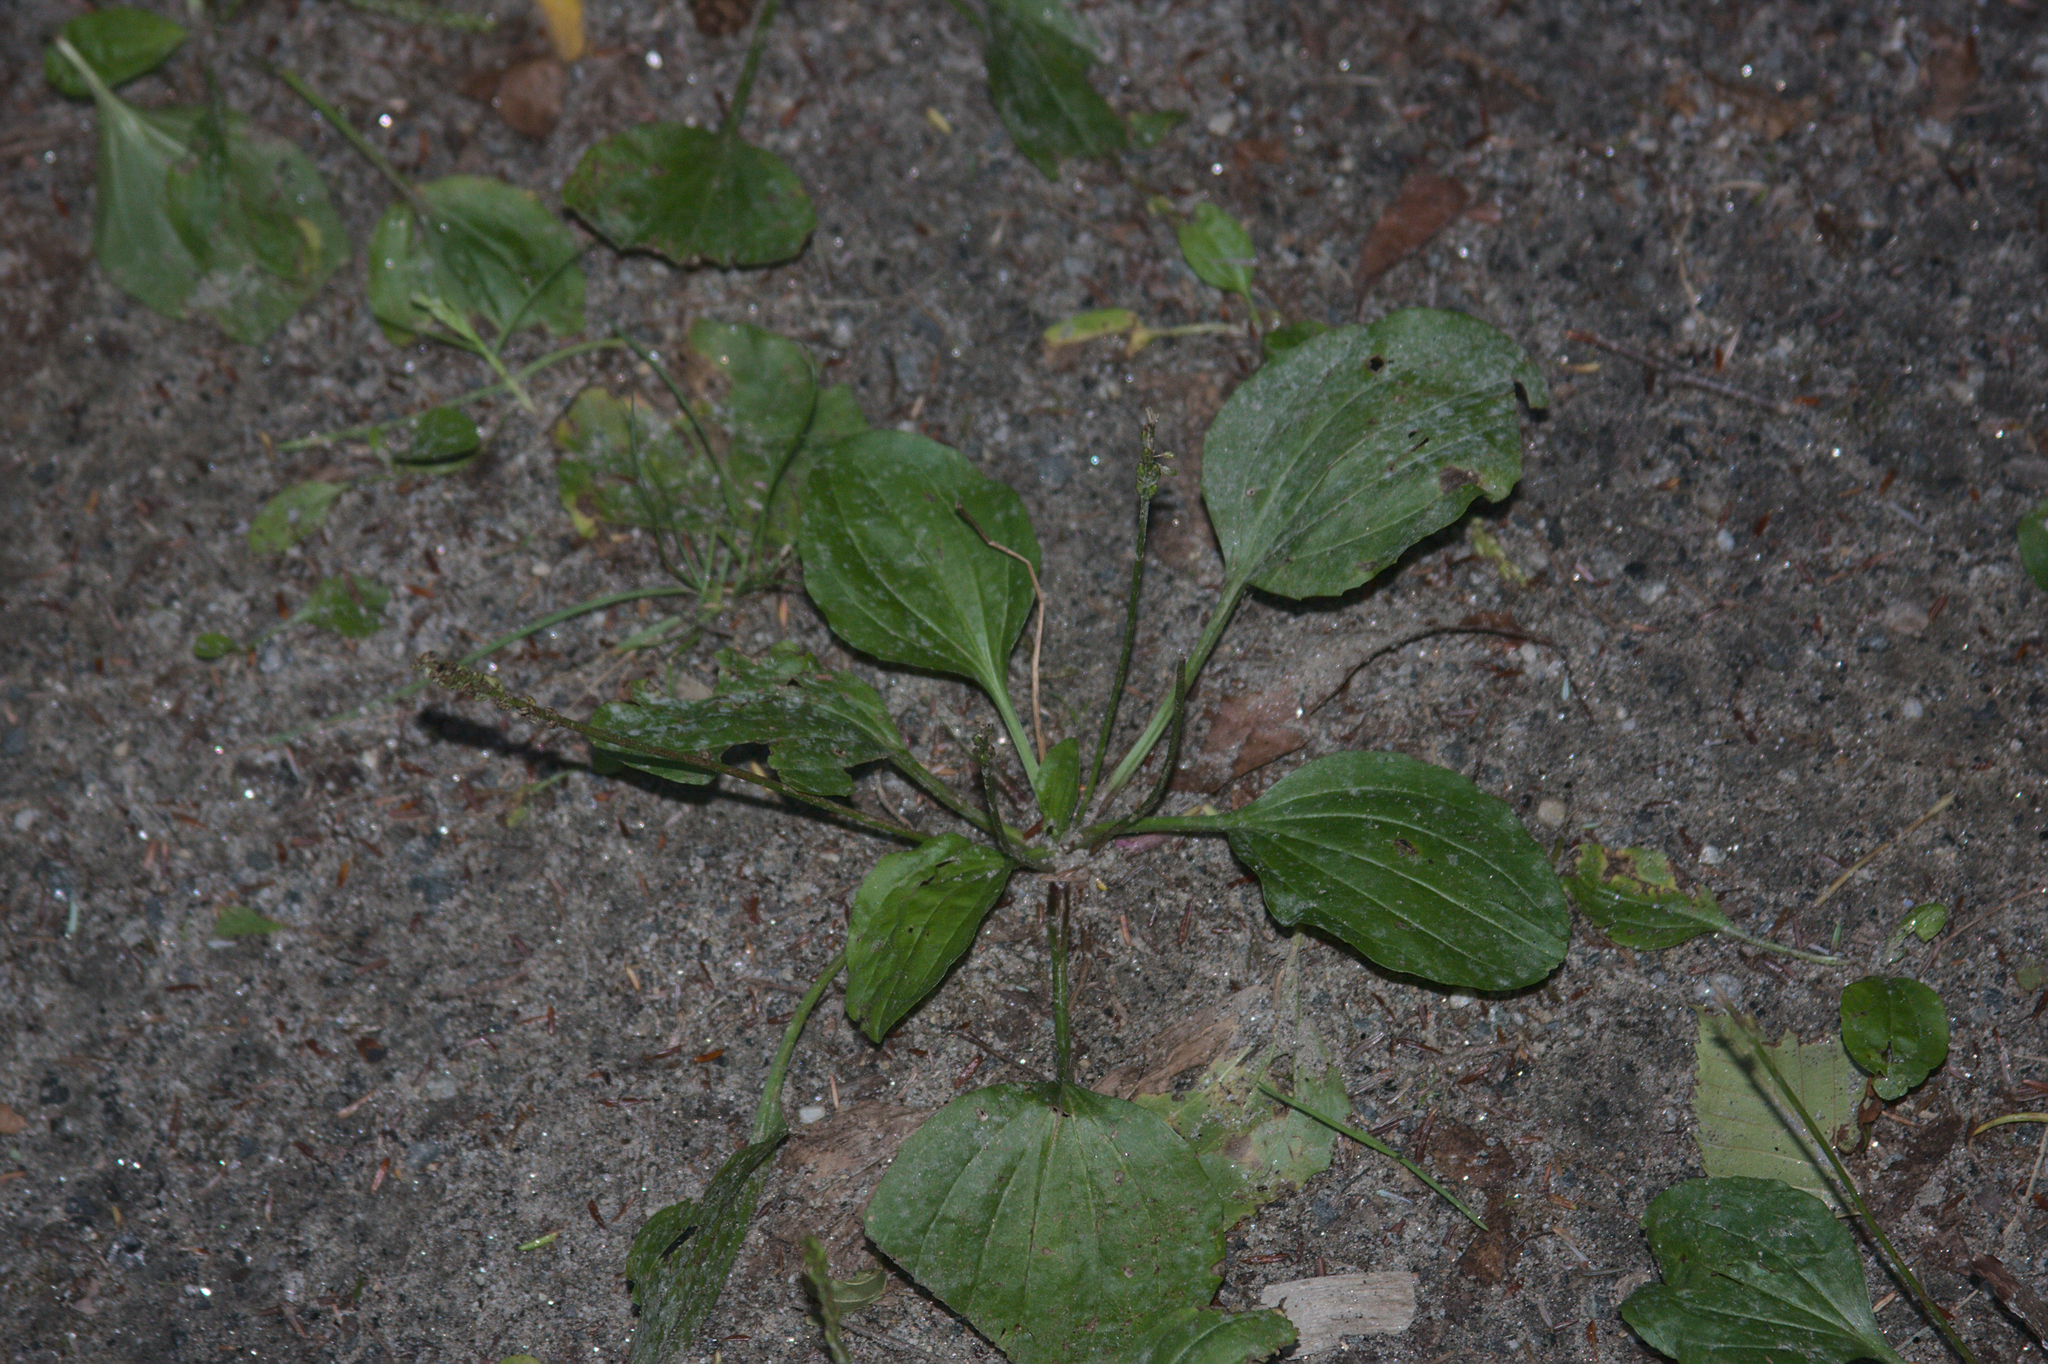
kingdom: Plantae
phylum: Tracheophyta
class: Magnoliopsida
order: Lamiales
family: Plantaginaceae
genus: Plantago
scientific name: Plantago major
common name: Common plantain
